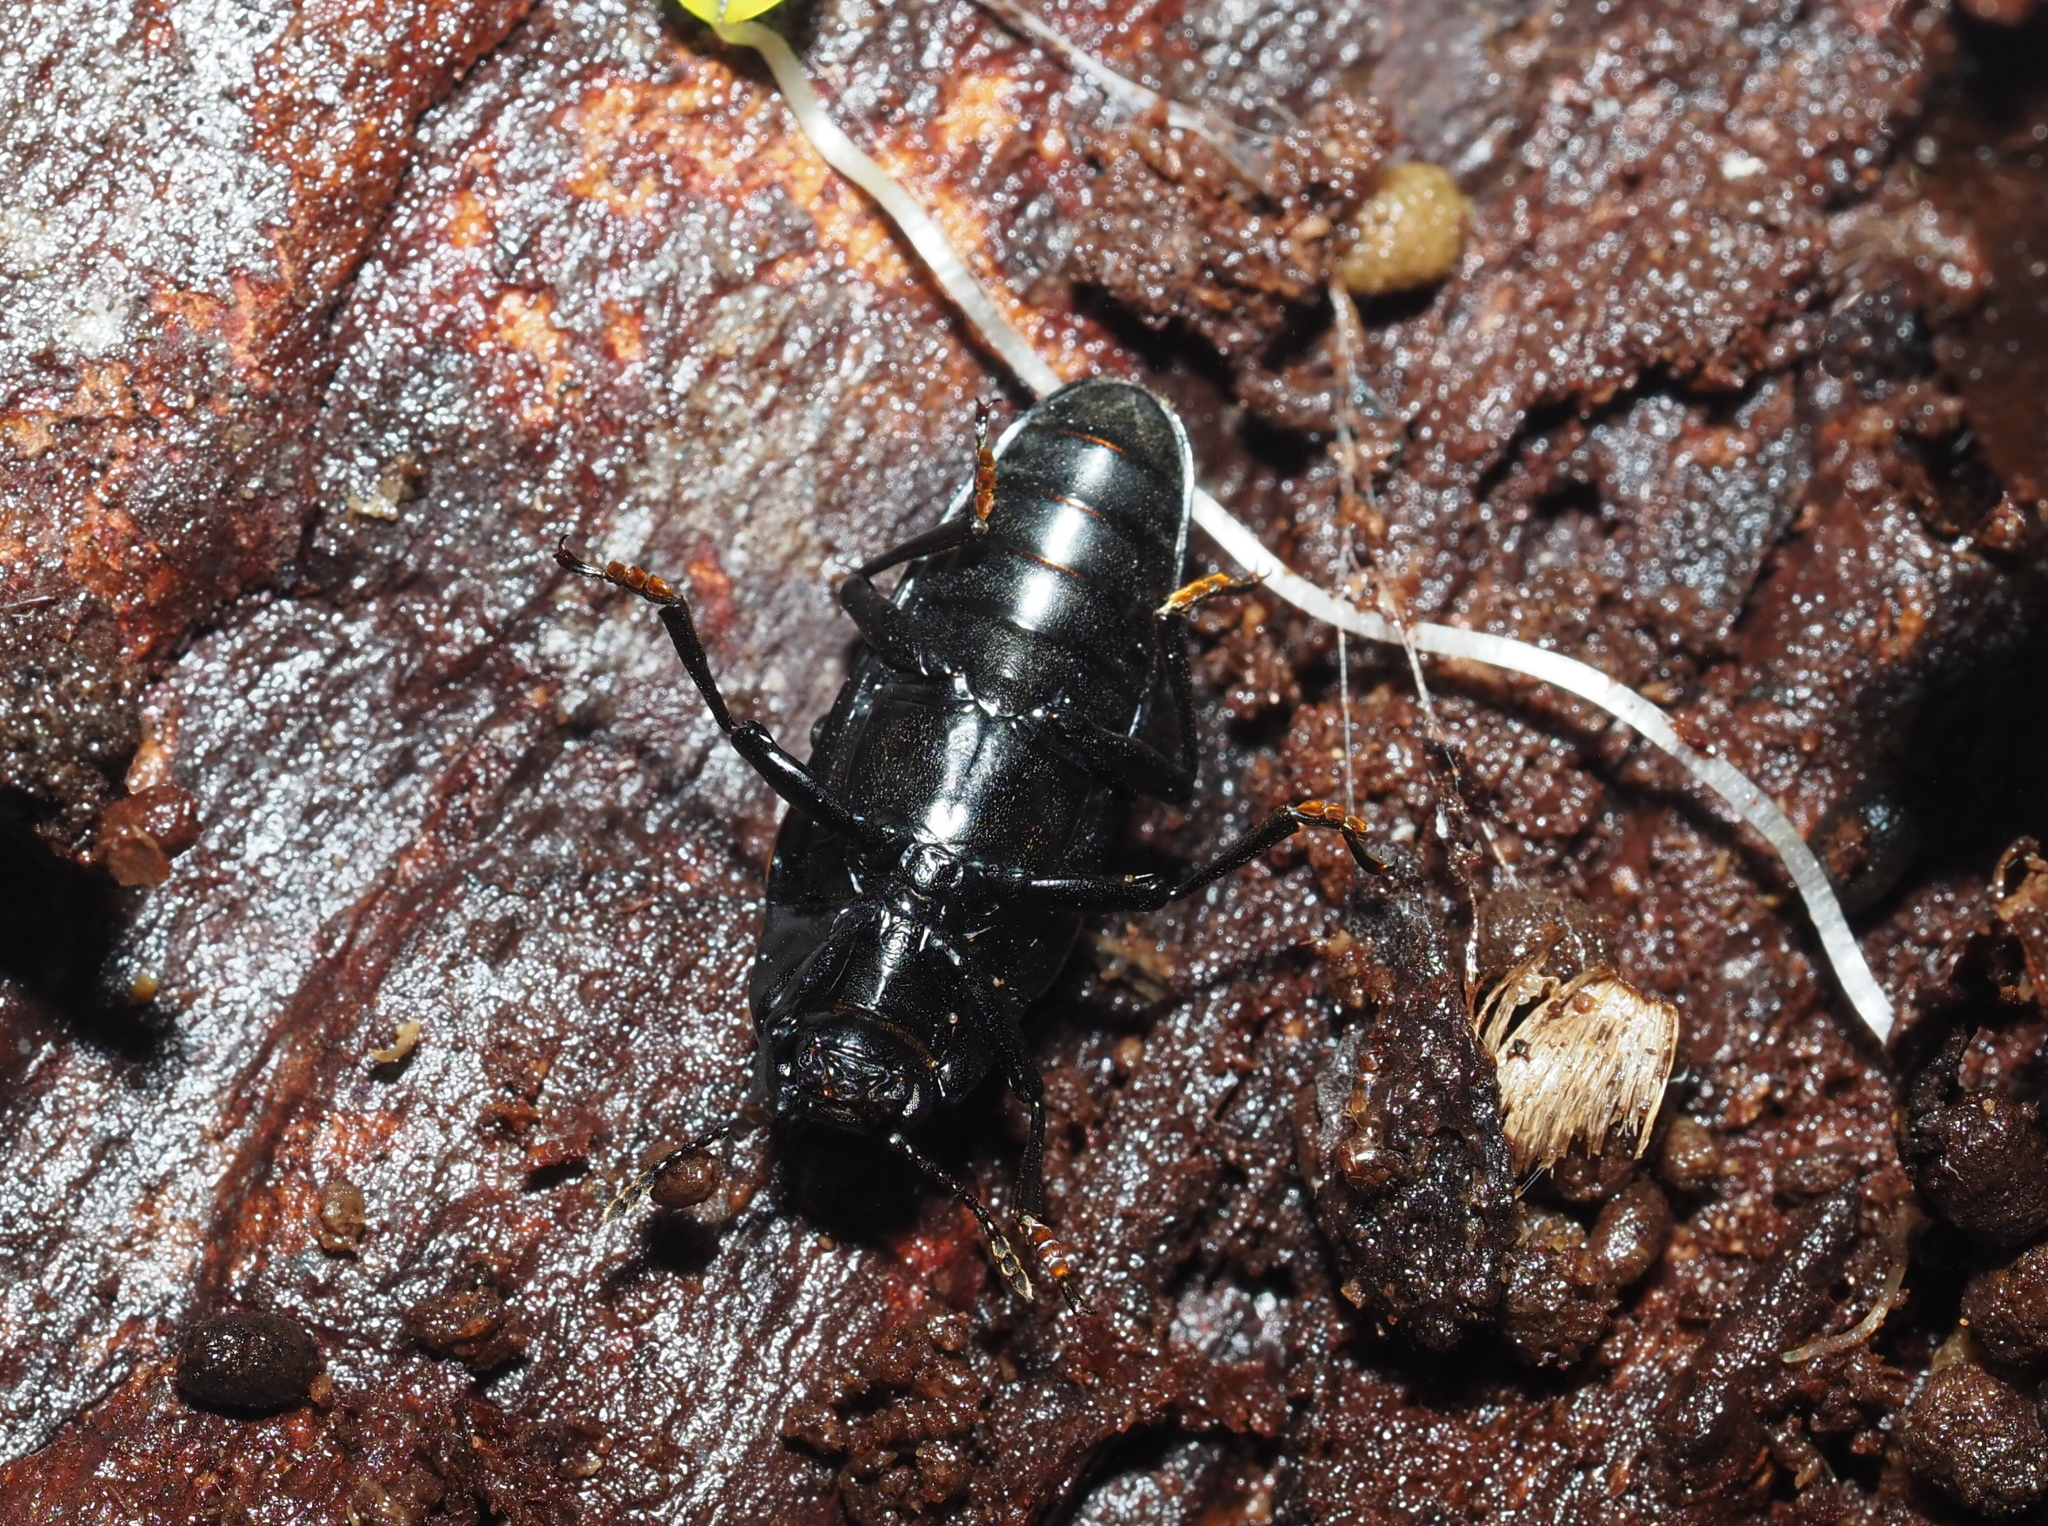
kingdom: Animalia
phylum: Arthropoda
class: Insecta
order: Coleoptera
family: Erotylidae
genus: Megalodacne
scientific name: Megalodacne heros
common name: Pleasing fungus beetle
